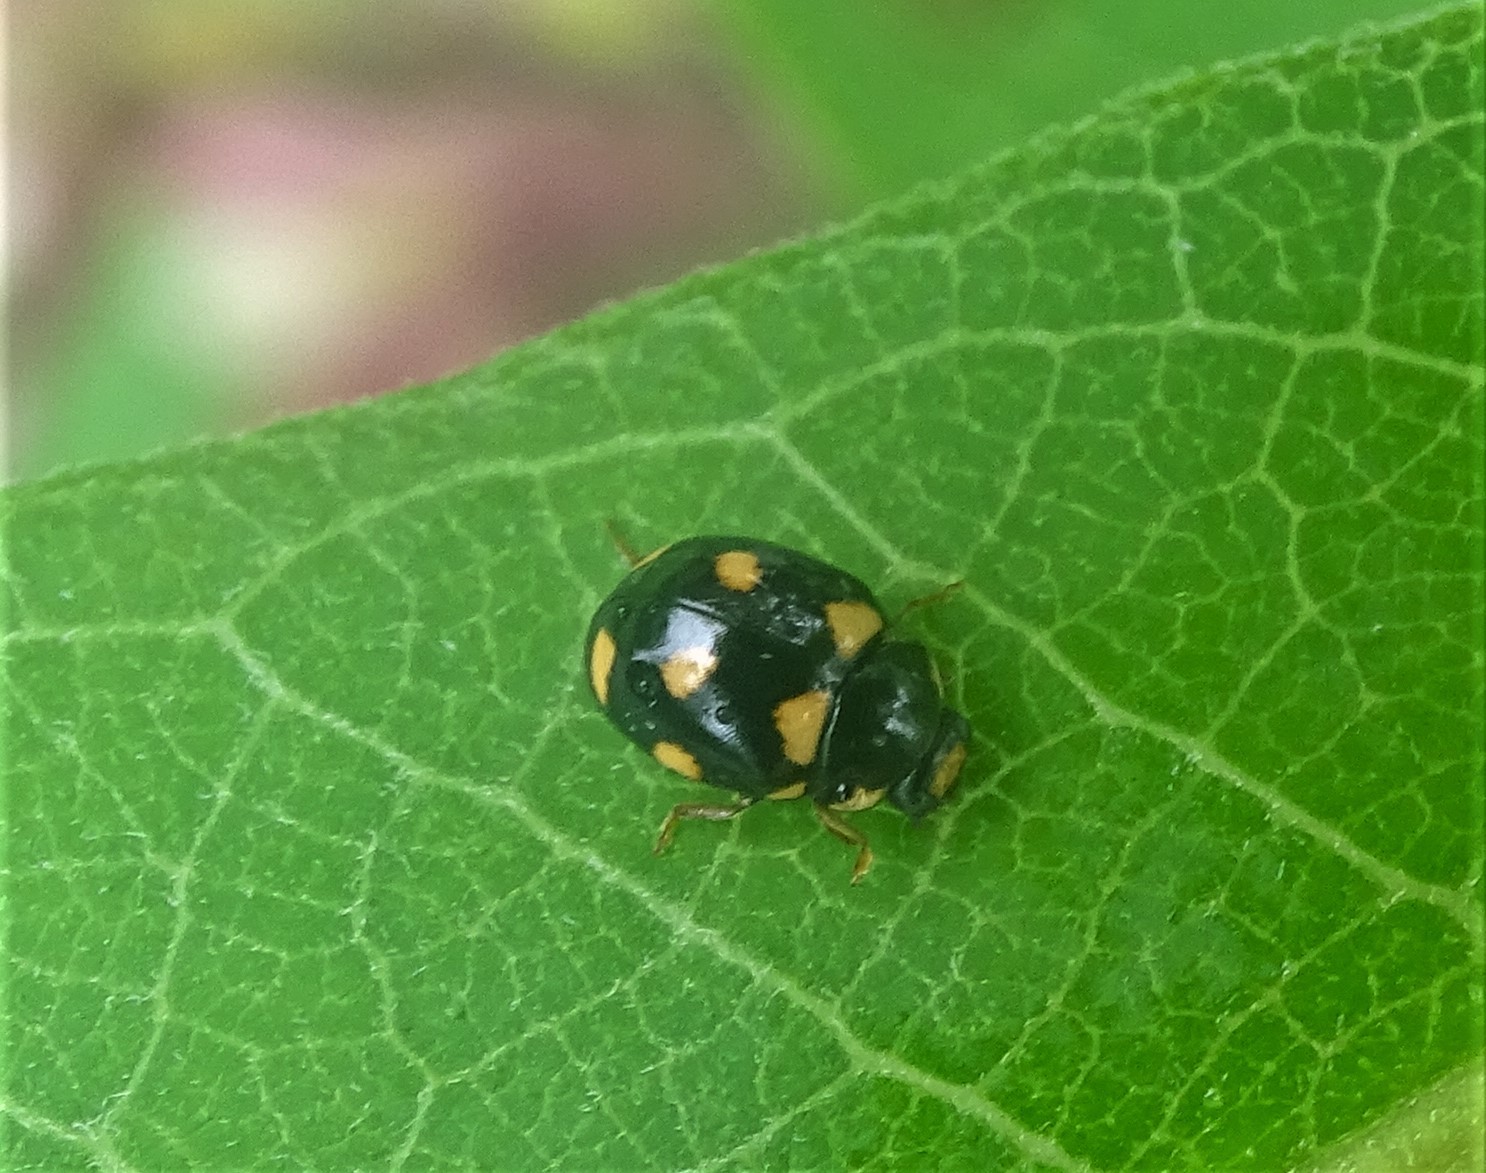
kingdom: Animalia
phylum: Arthropoda
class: Insecta
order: Coleoptera
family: Coccinellidae
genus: Brachiacantha
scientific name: Brachiacantha ursina
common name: Ursine spurleg lady beetle
